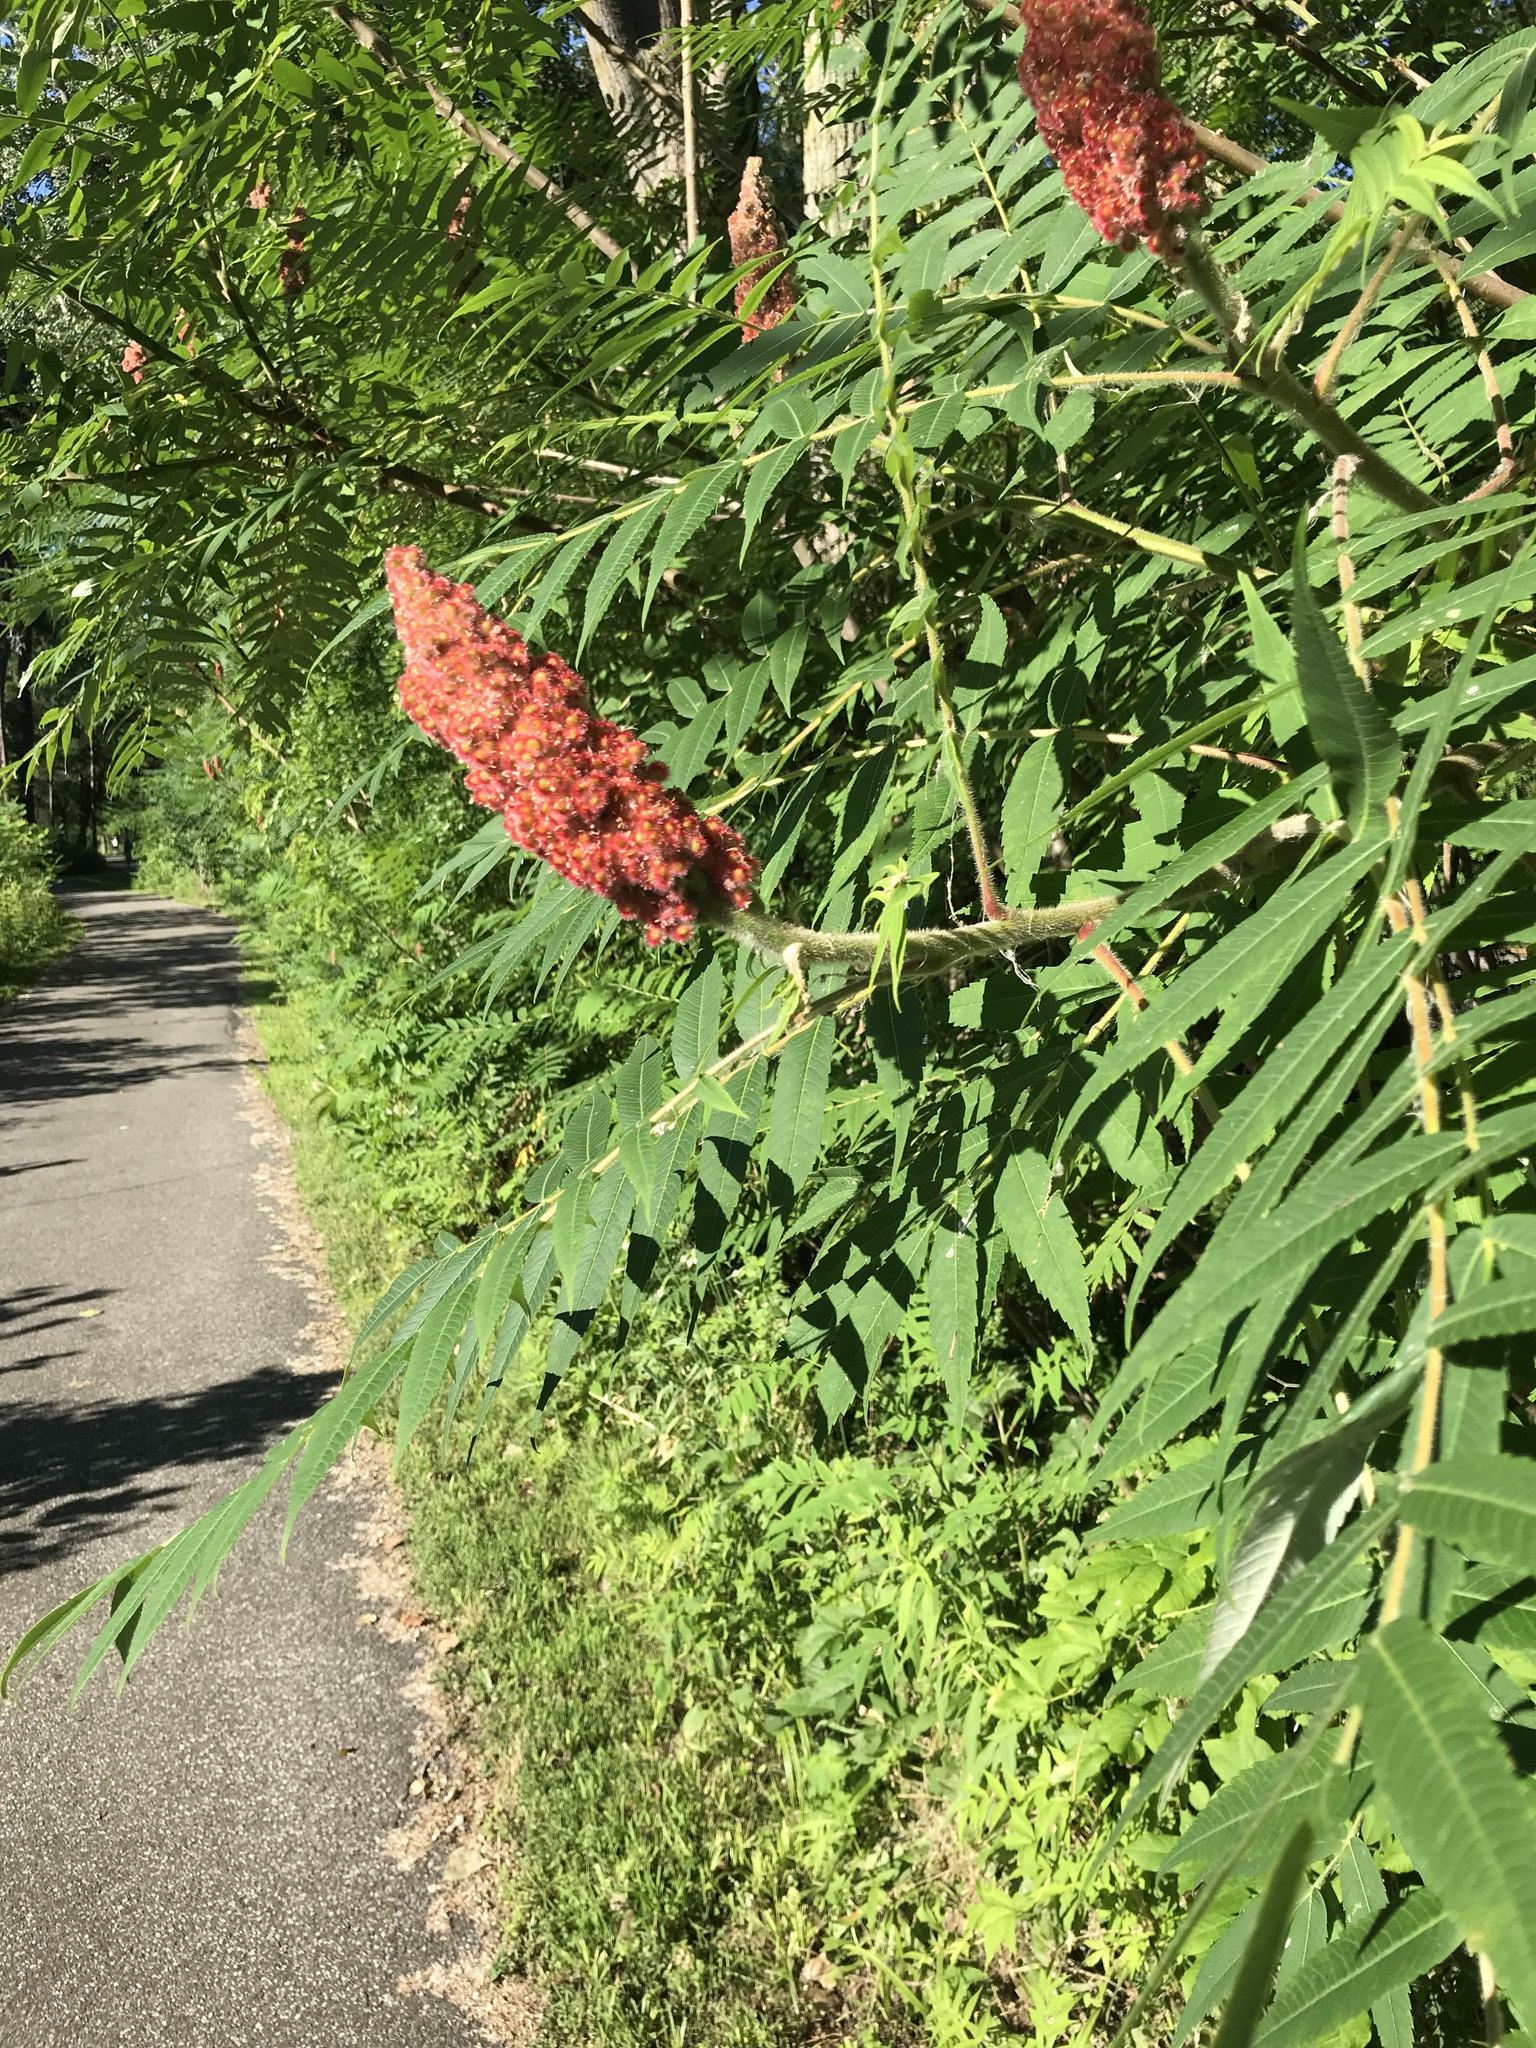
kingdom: Plantae
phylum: Tracheophyta
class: Magnoliopsida
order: Sapindales
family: Anacardiaceae
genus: Rhus
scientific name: Rhus typhina
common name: Staghorn sumac
